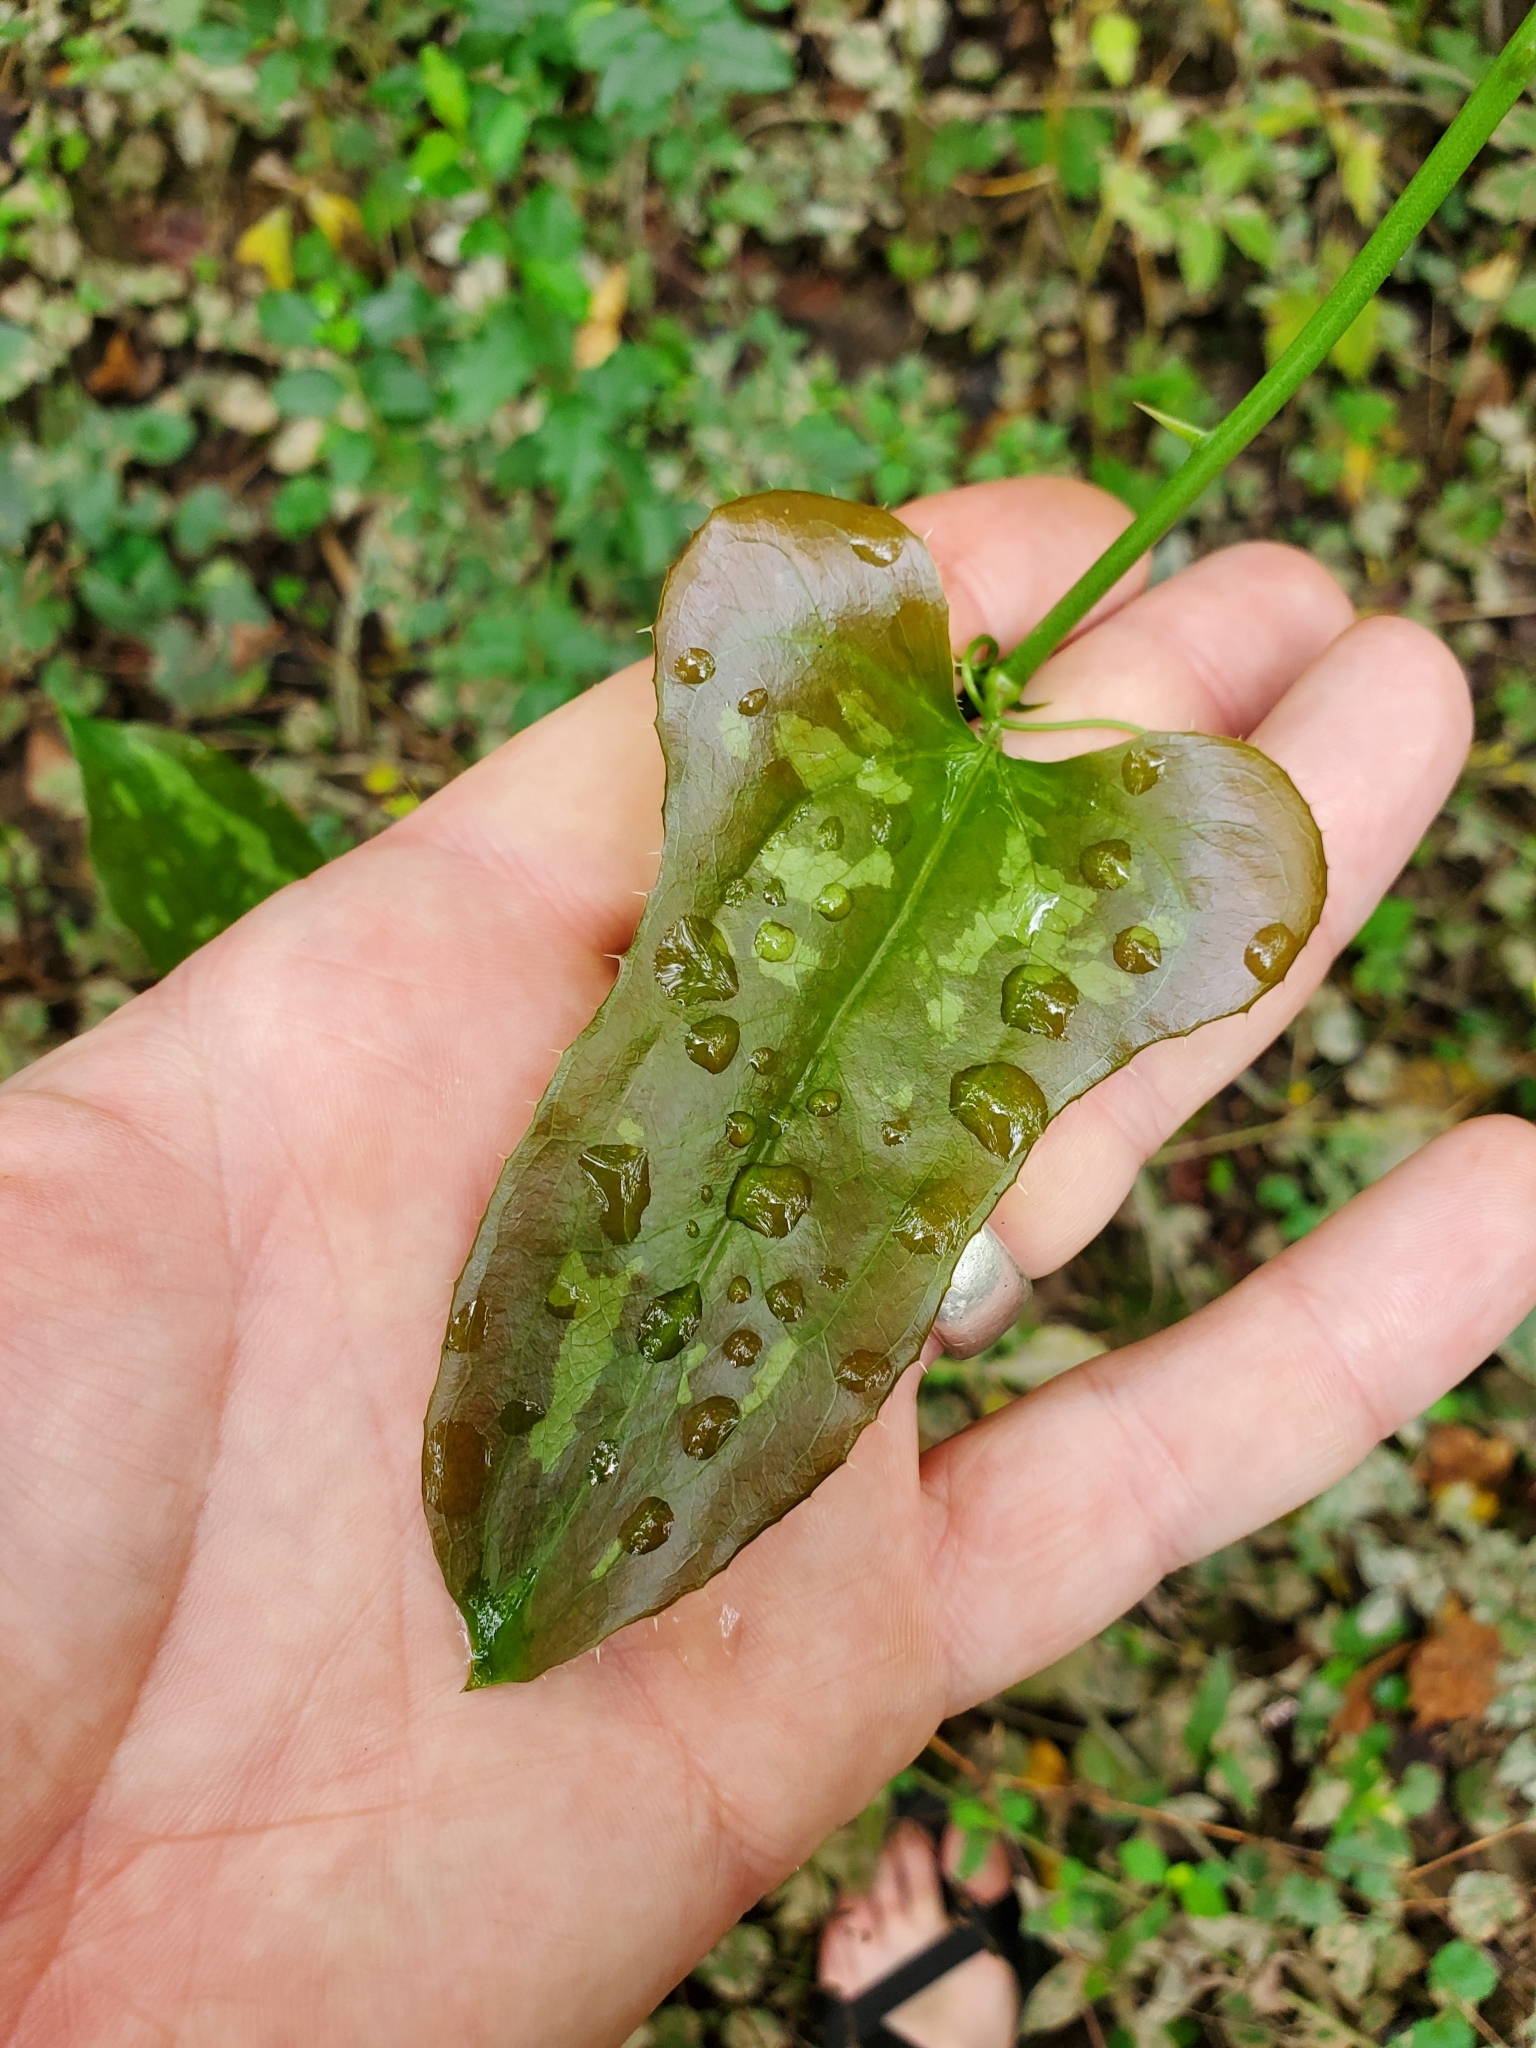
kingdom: Plantae
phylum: Tracheophyta
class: Liliopsida
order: Liliales
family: Smilacaceae
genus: Smilax
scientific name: Smilax bona-nox
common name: Catbrier
